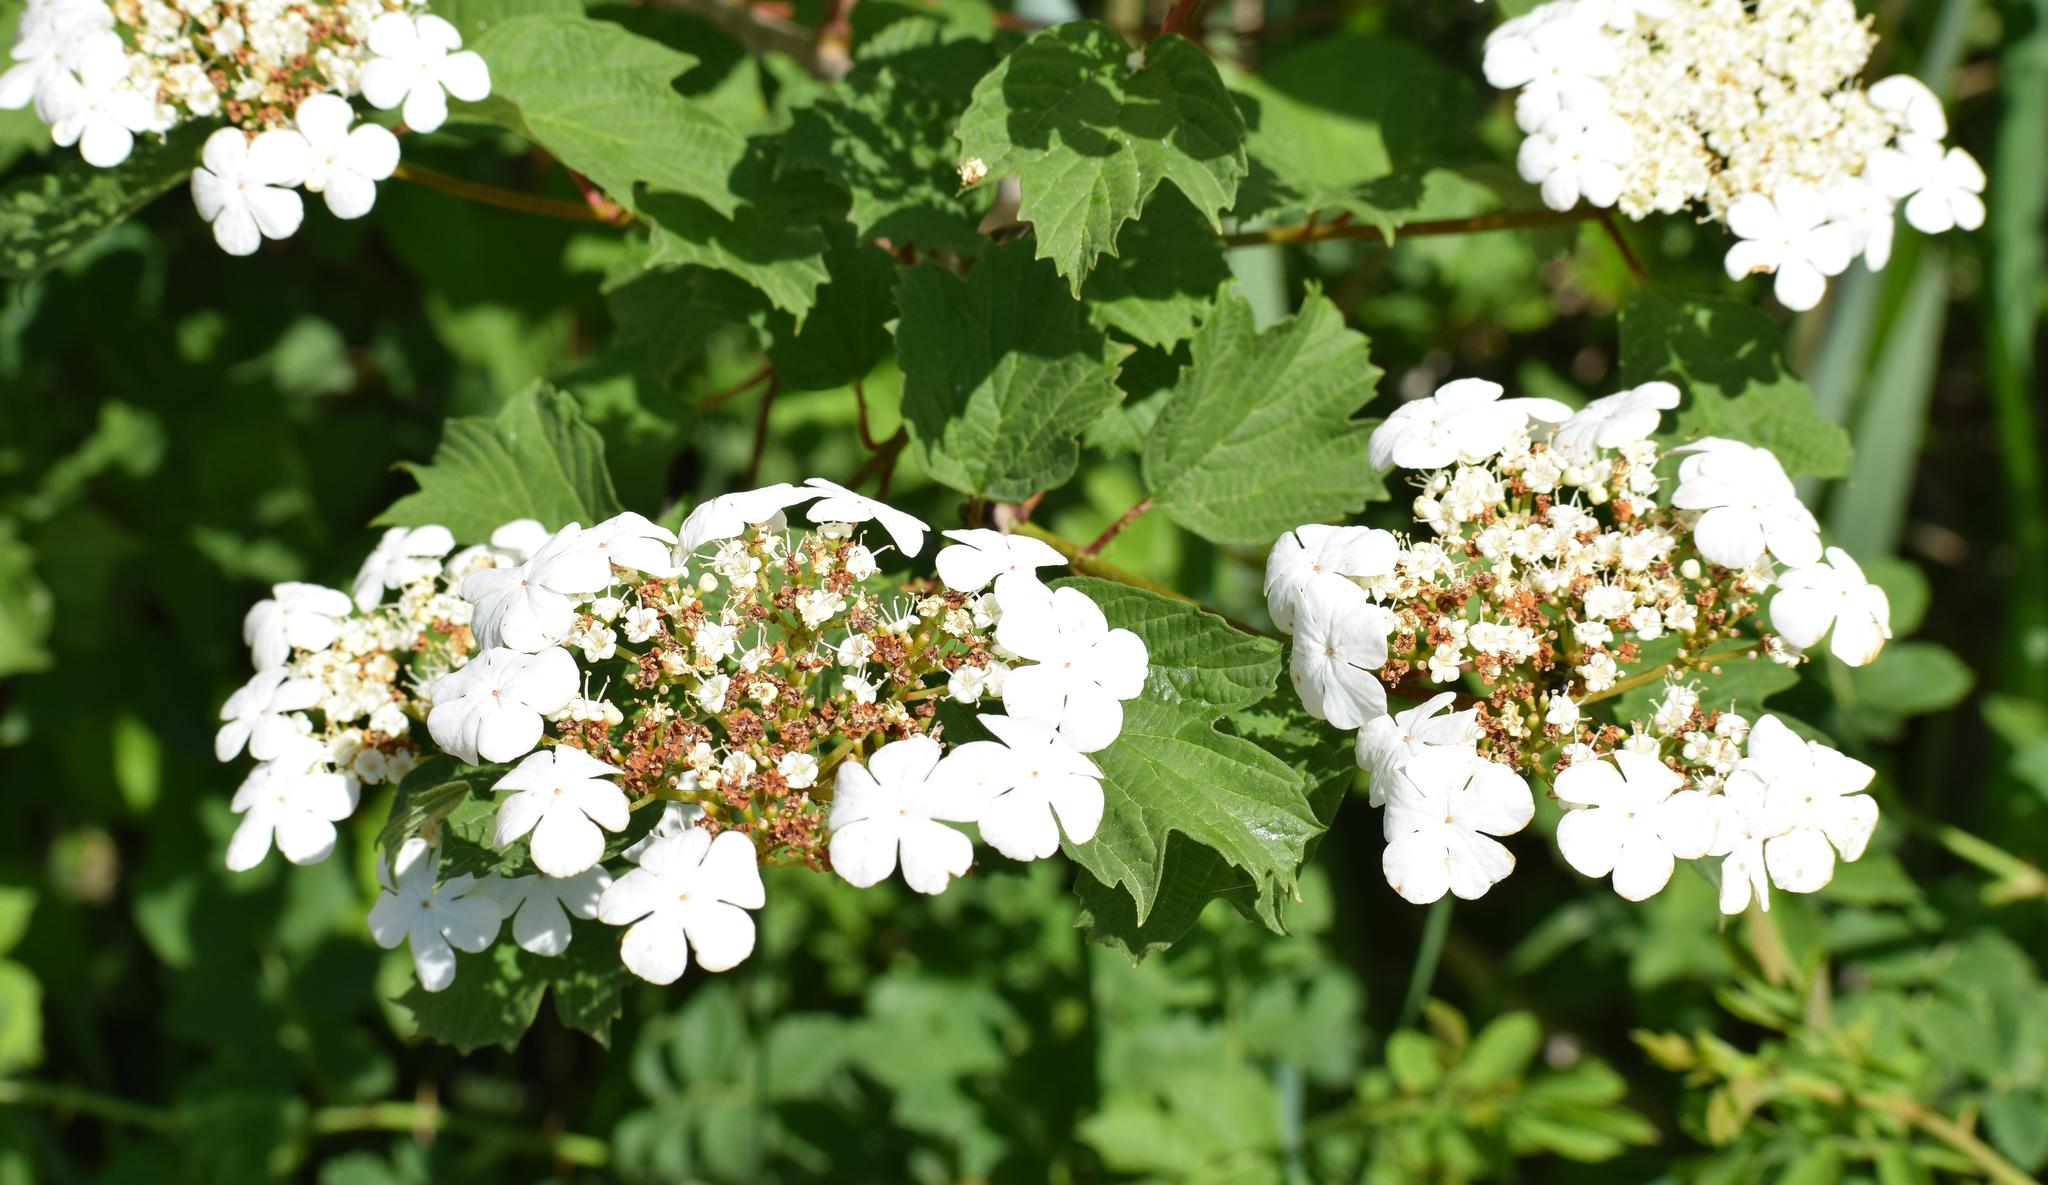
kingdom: Plantae
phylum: Tracheophyta
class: Magnoliopsida
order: Dipsacales
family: Viburnaceae
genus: Viburnum
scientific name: Viburnum opulus
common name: Guelder-rose
